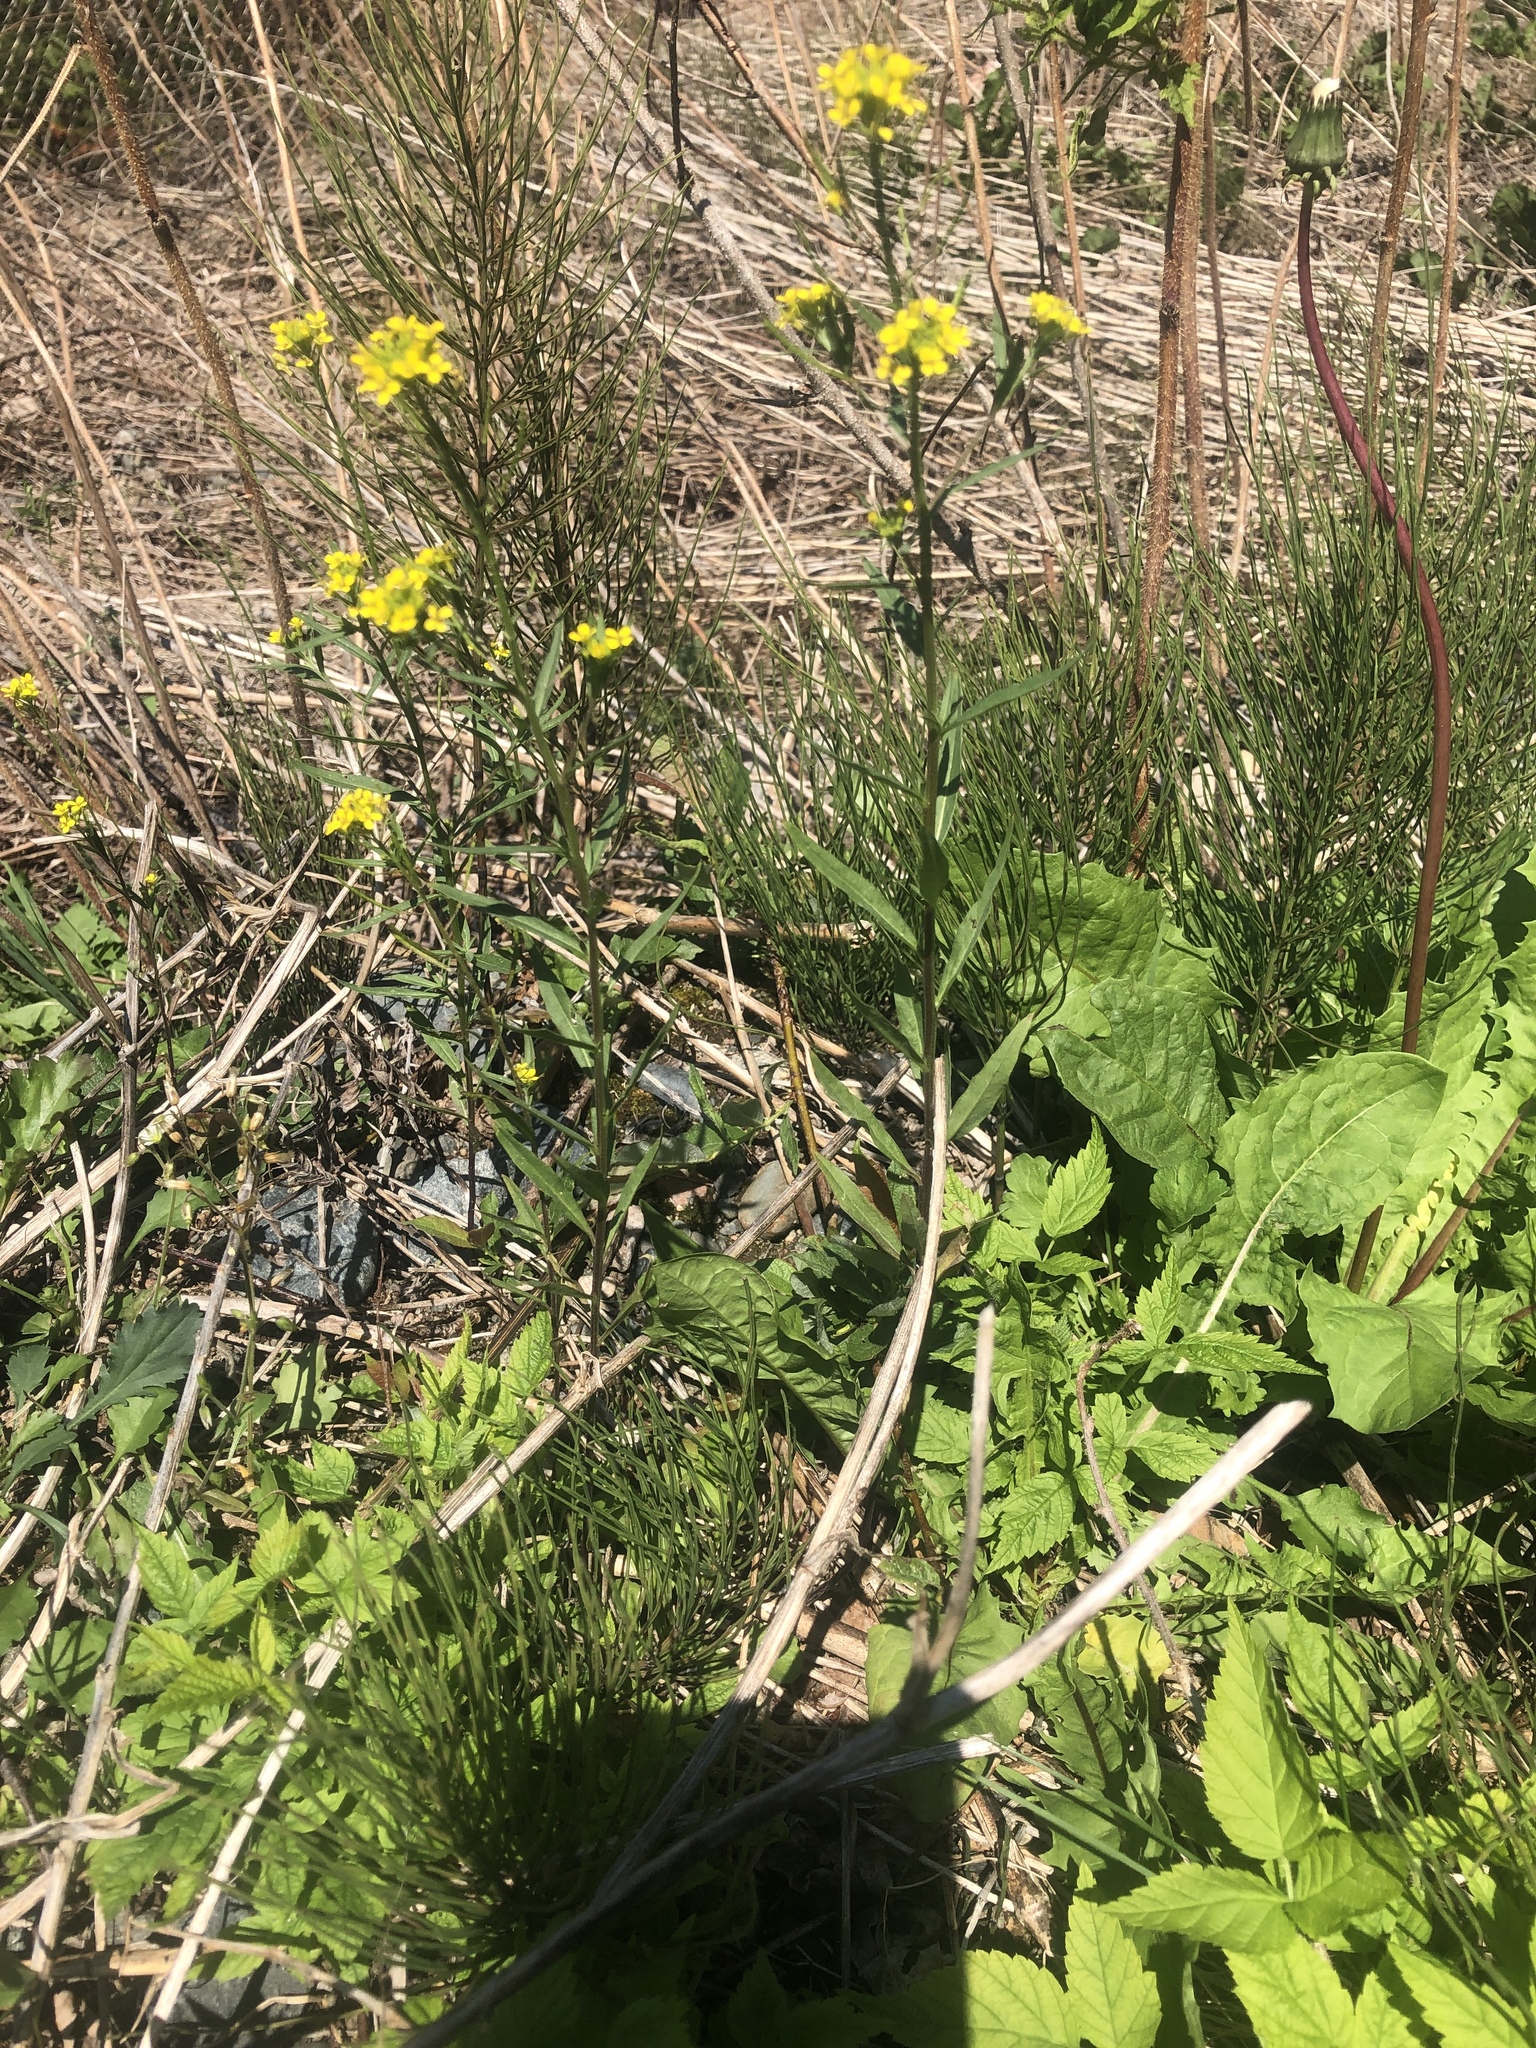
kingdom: Plantae
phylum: Tracheophyta
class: Magnoliopsida
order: Brassicales
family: Brassicaceae
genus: Erysimum
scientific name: Erysimum cheiranthoides
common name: Treacle mustard
